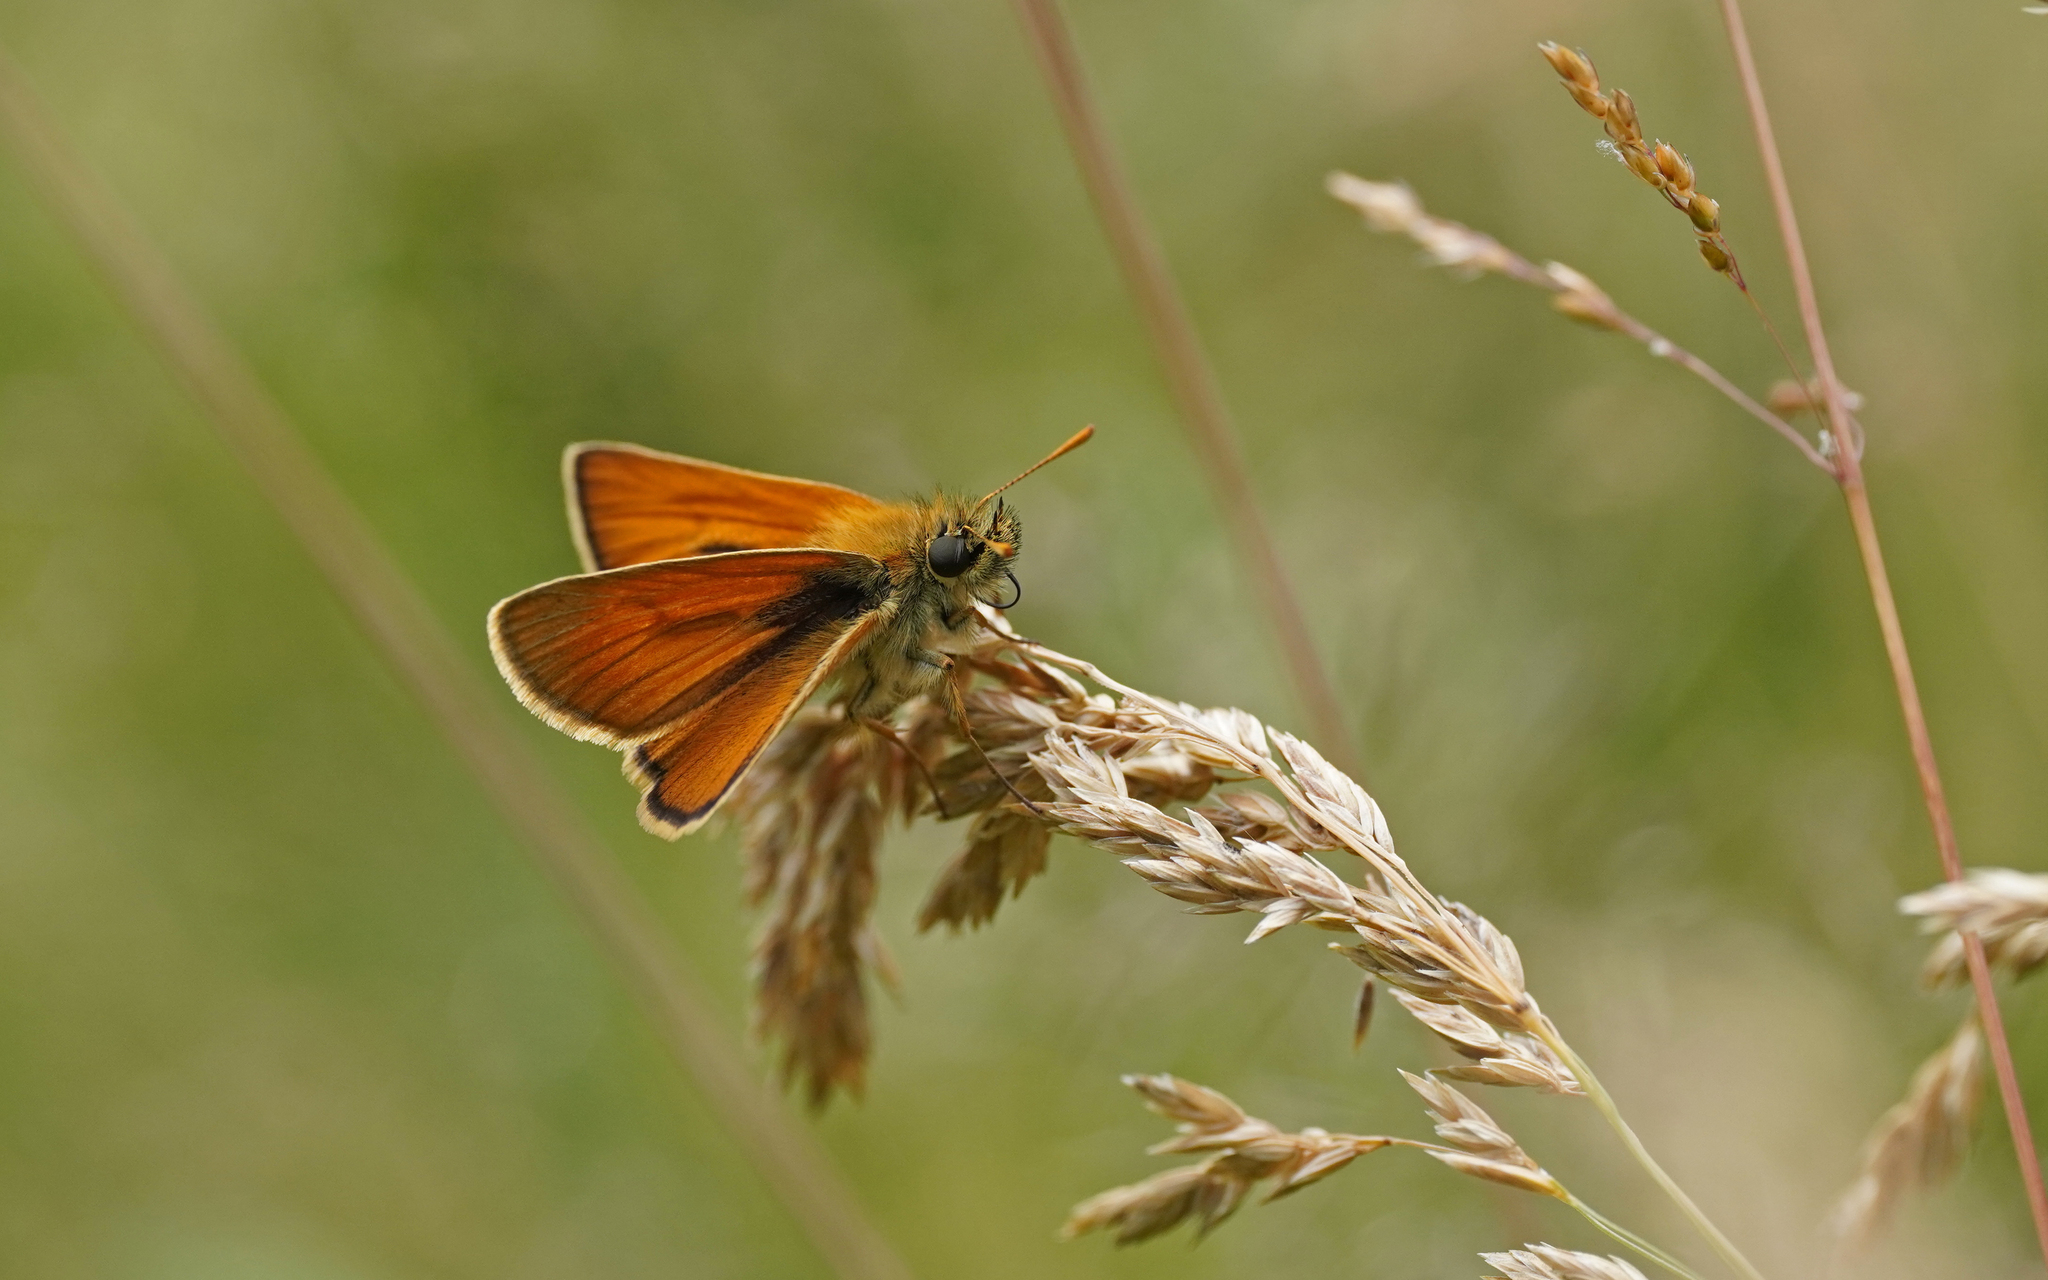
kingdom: Animalia
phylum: Arthropoda
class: Insecta
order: Lepidoptera
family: Hesperiidae
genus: Thymelicus
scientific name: Thymelicus sylvestris
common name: Small skipper
